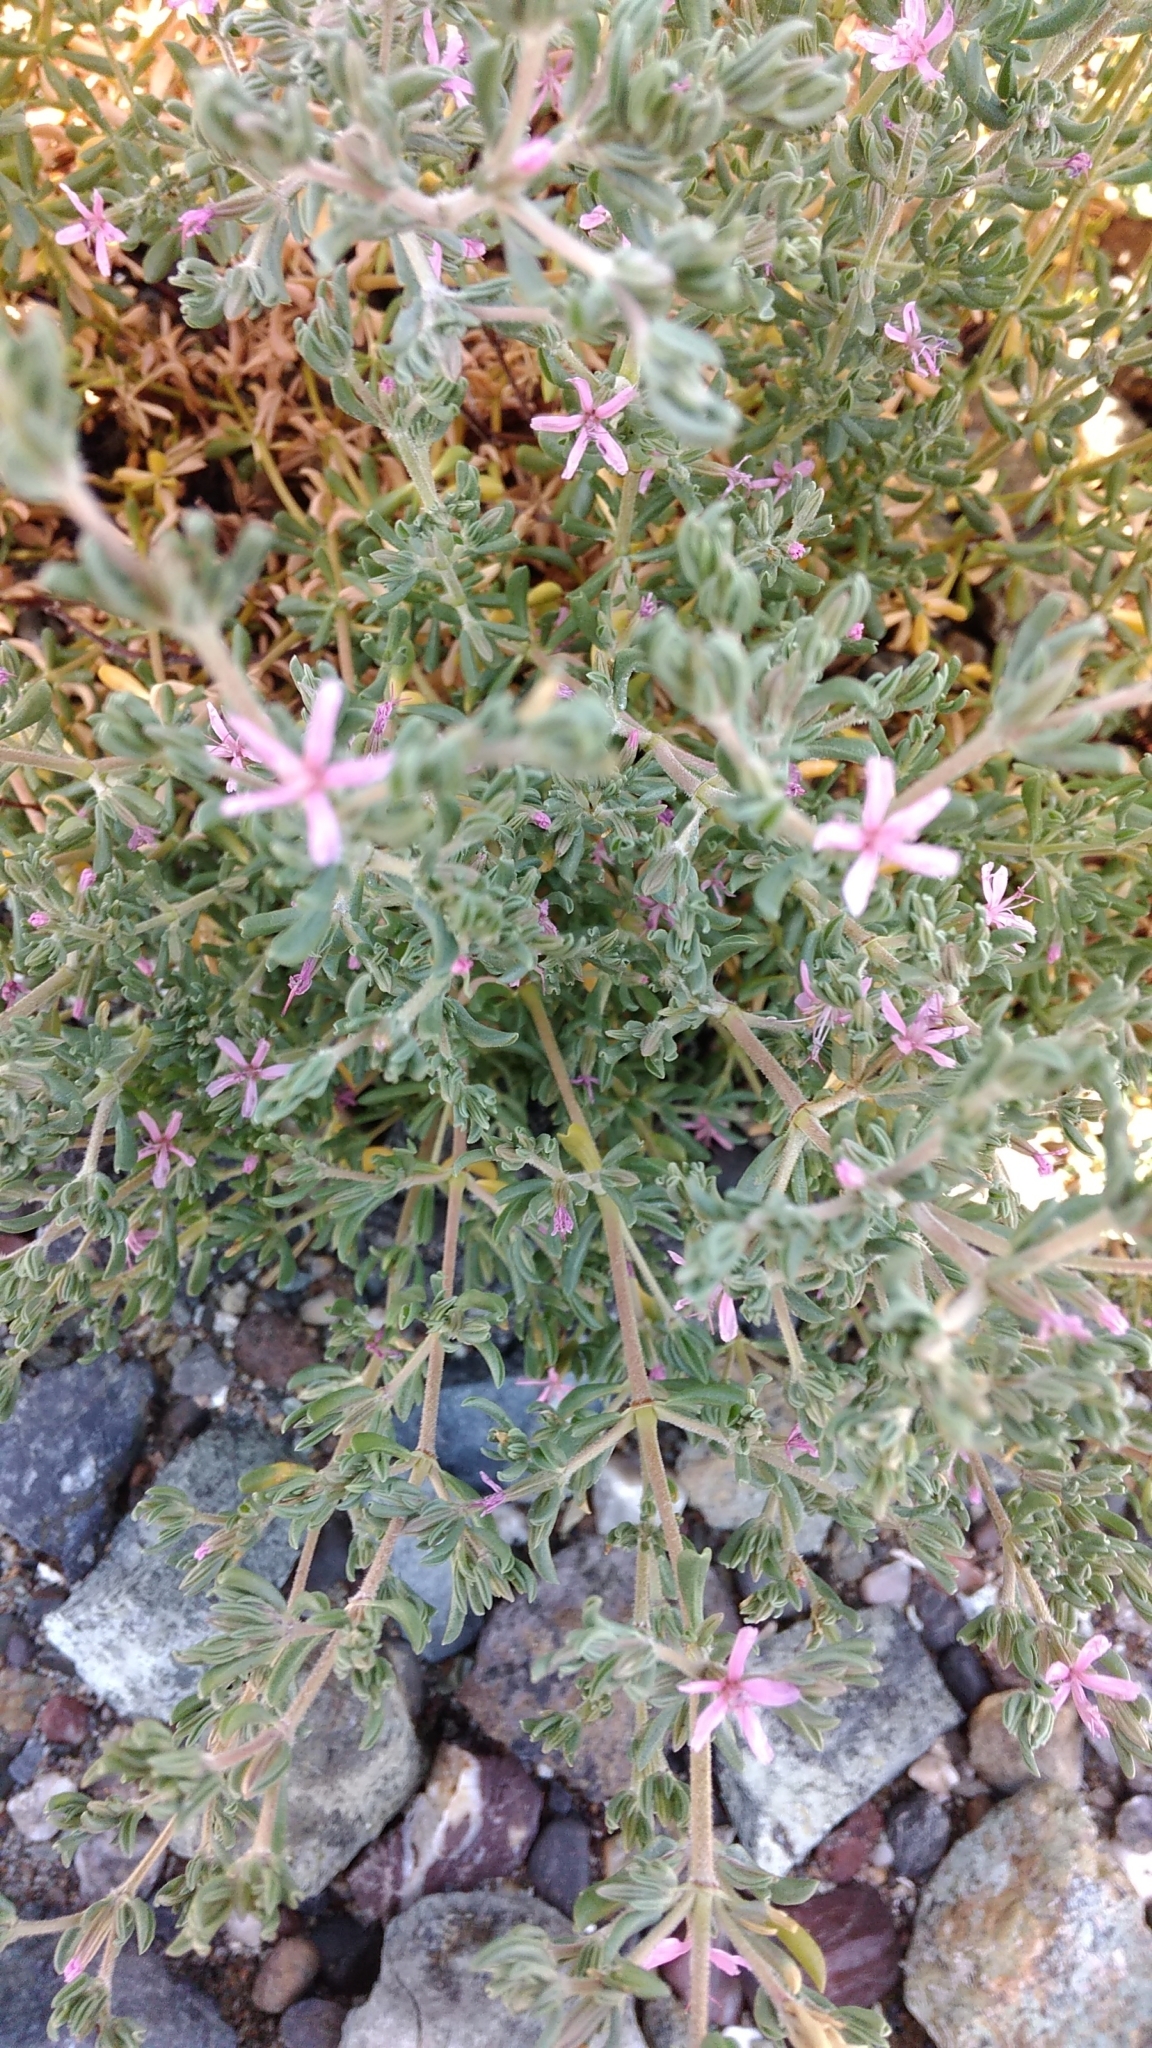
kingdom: Plantae
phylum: Tracheophyta
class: Magnoliopsida
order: Caryophyllales
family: Frankeniaceae
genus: Frankenia
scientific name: Frankenia salina
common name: Alkali seaheath
